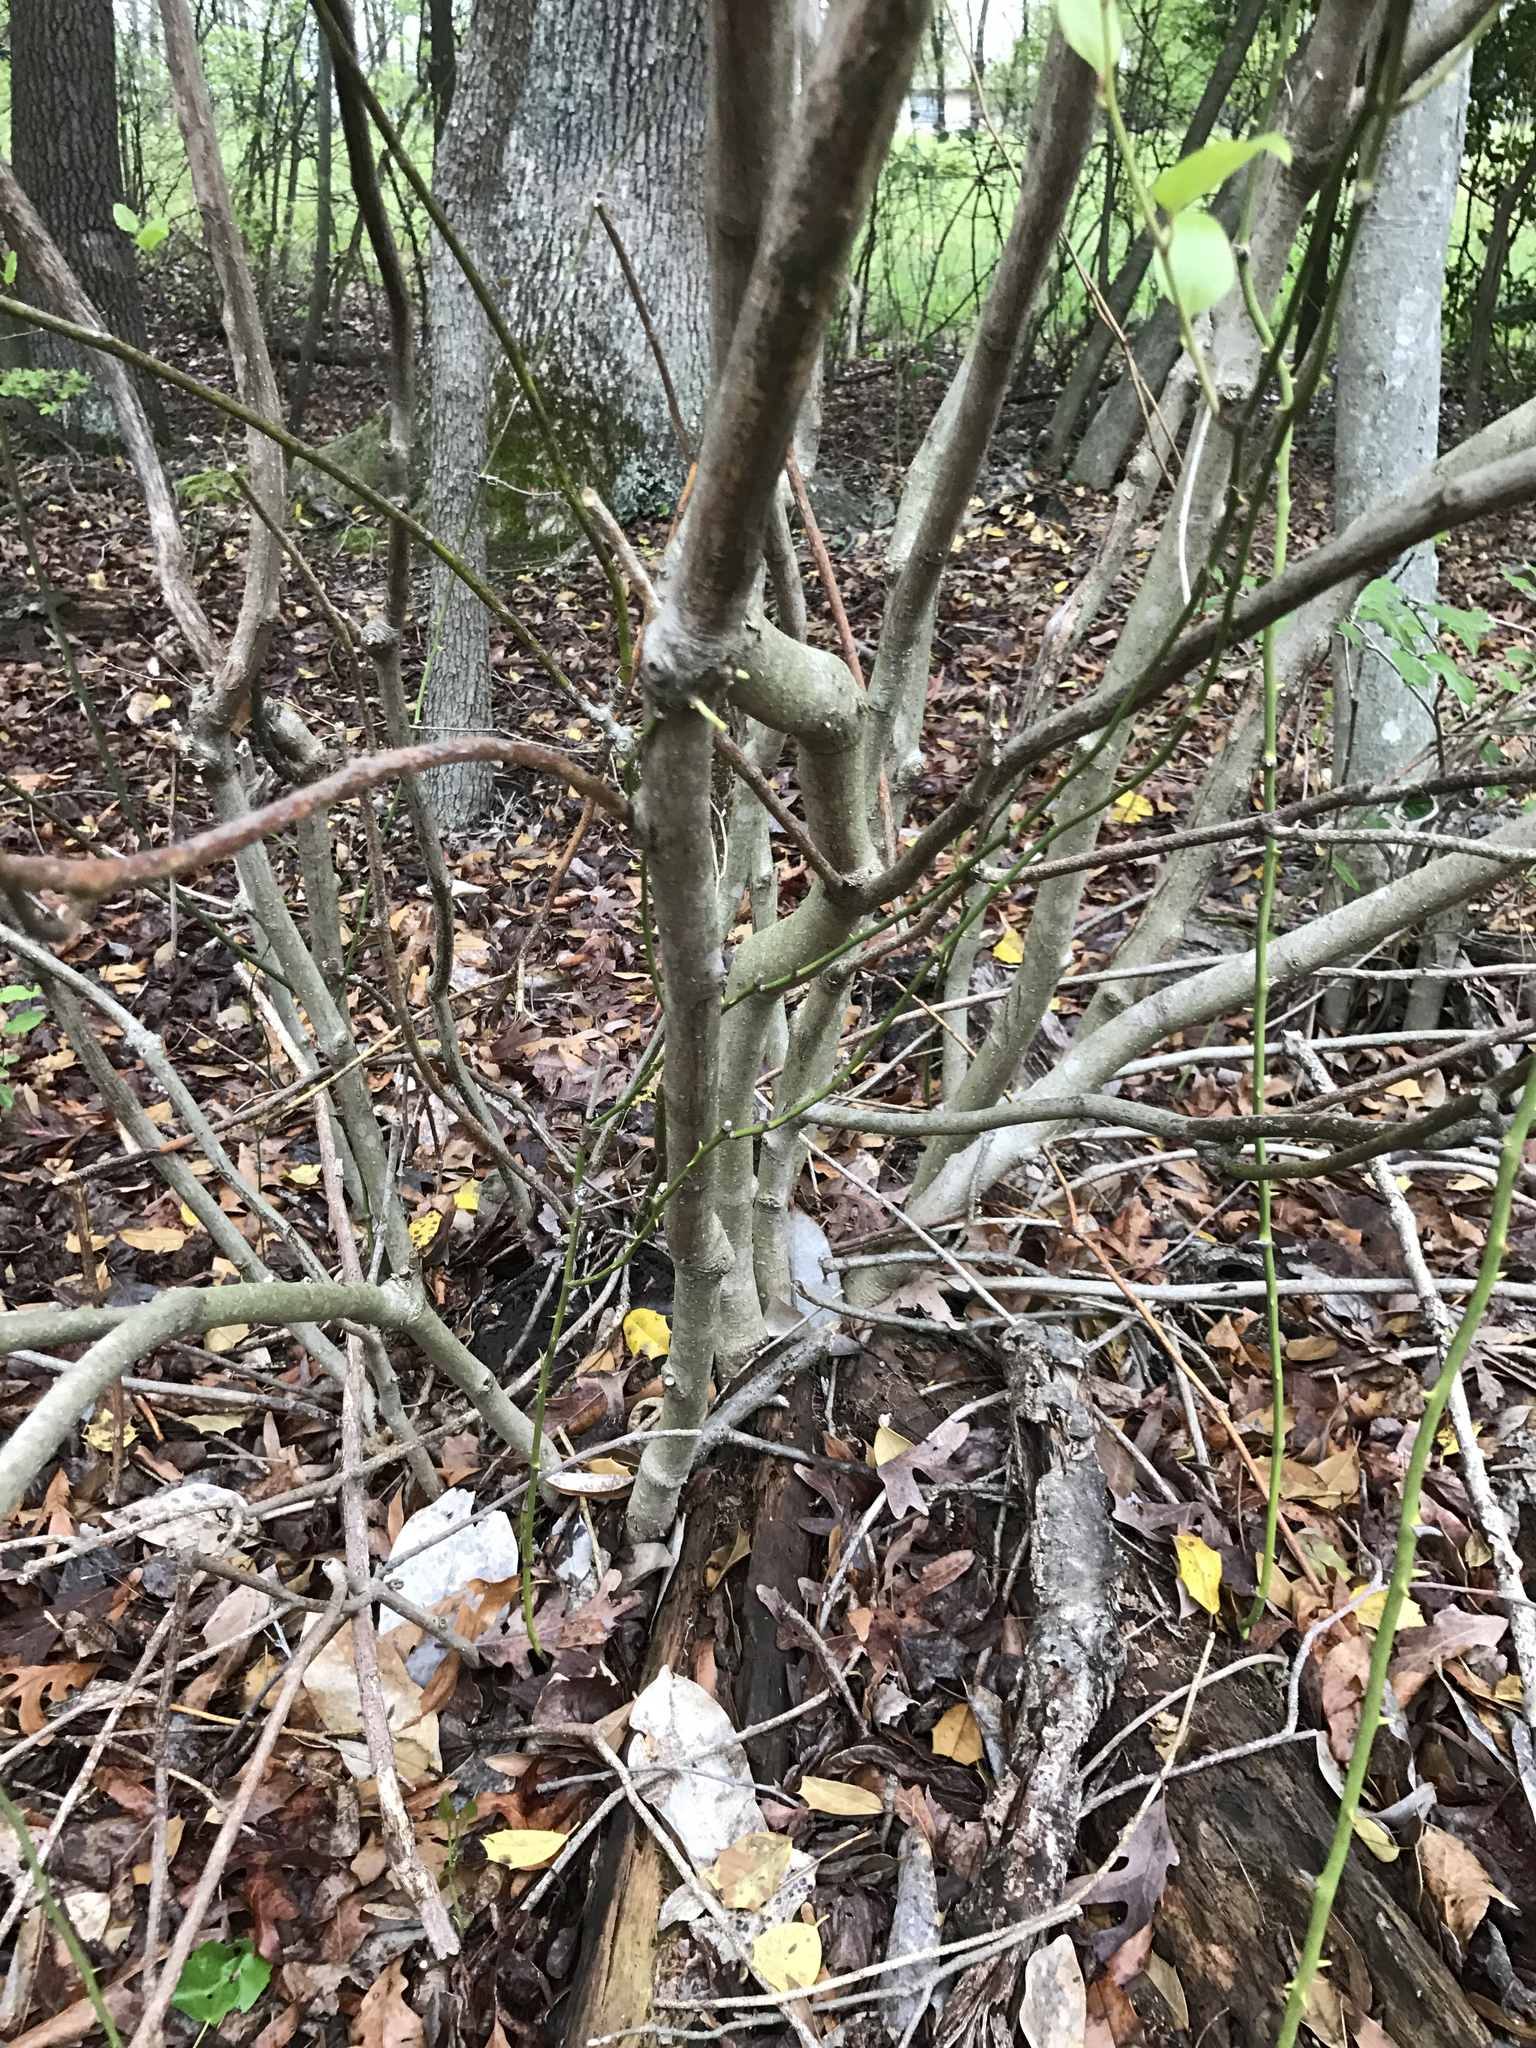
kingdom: Plantae
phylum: Tracheophyta
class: Magnoliopsida
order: Magnoliales
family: Magnoliaceae
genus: Magnolia
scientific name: Magnolia virginiana
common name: Swamp bay
